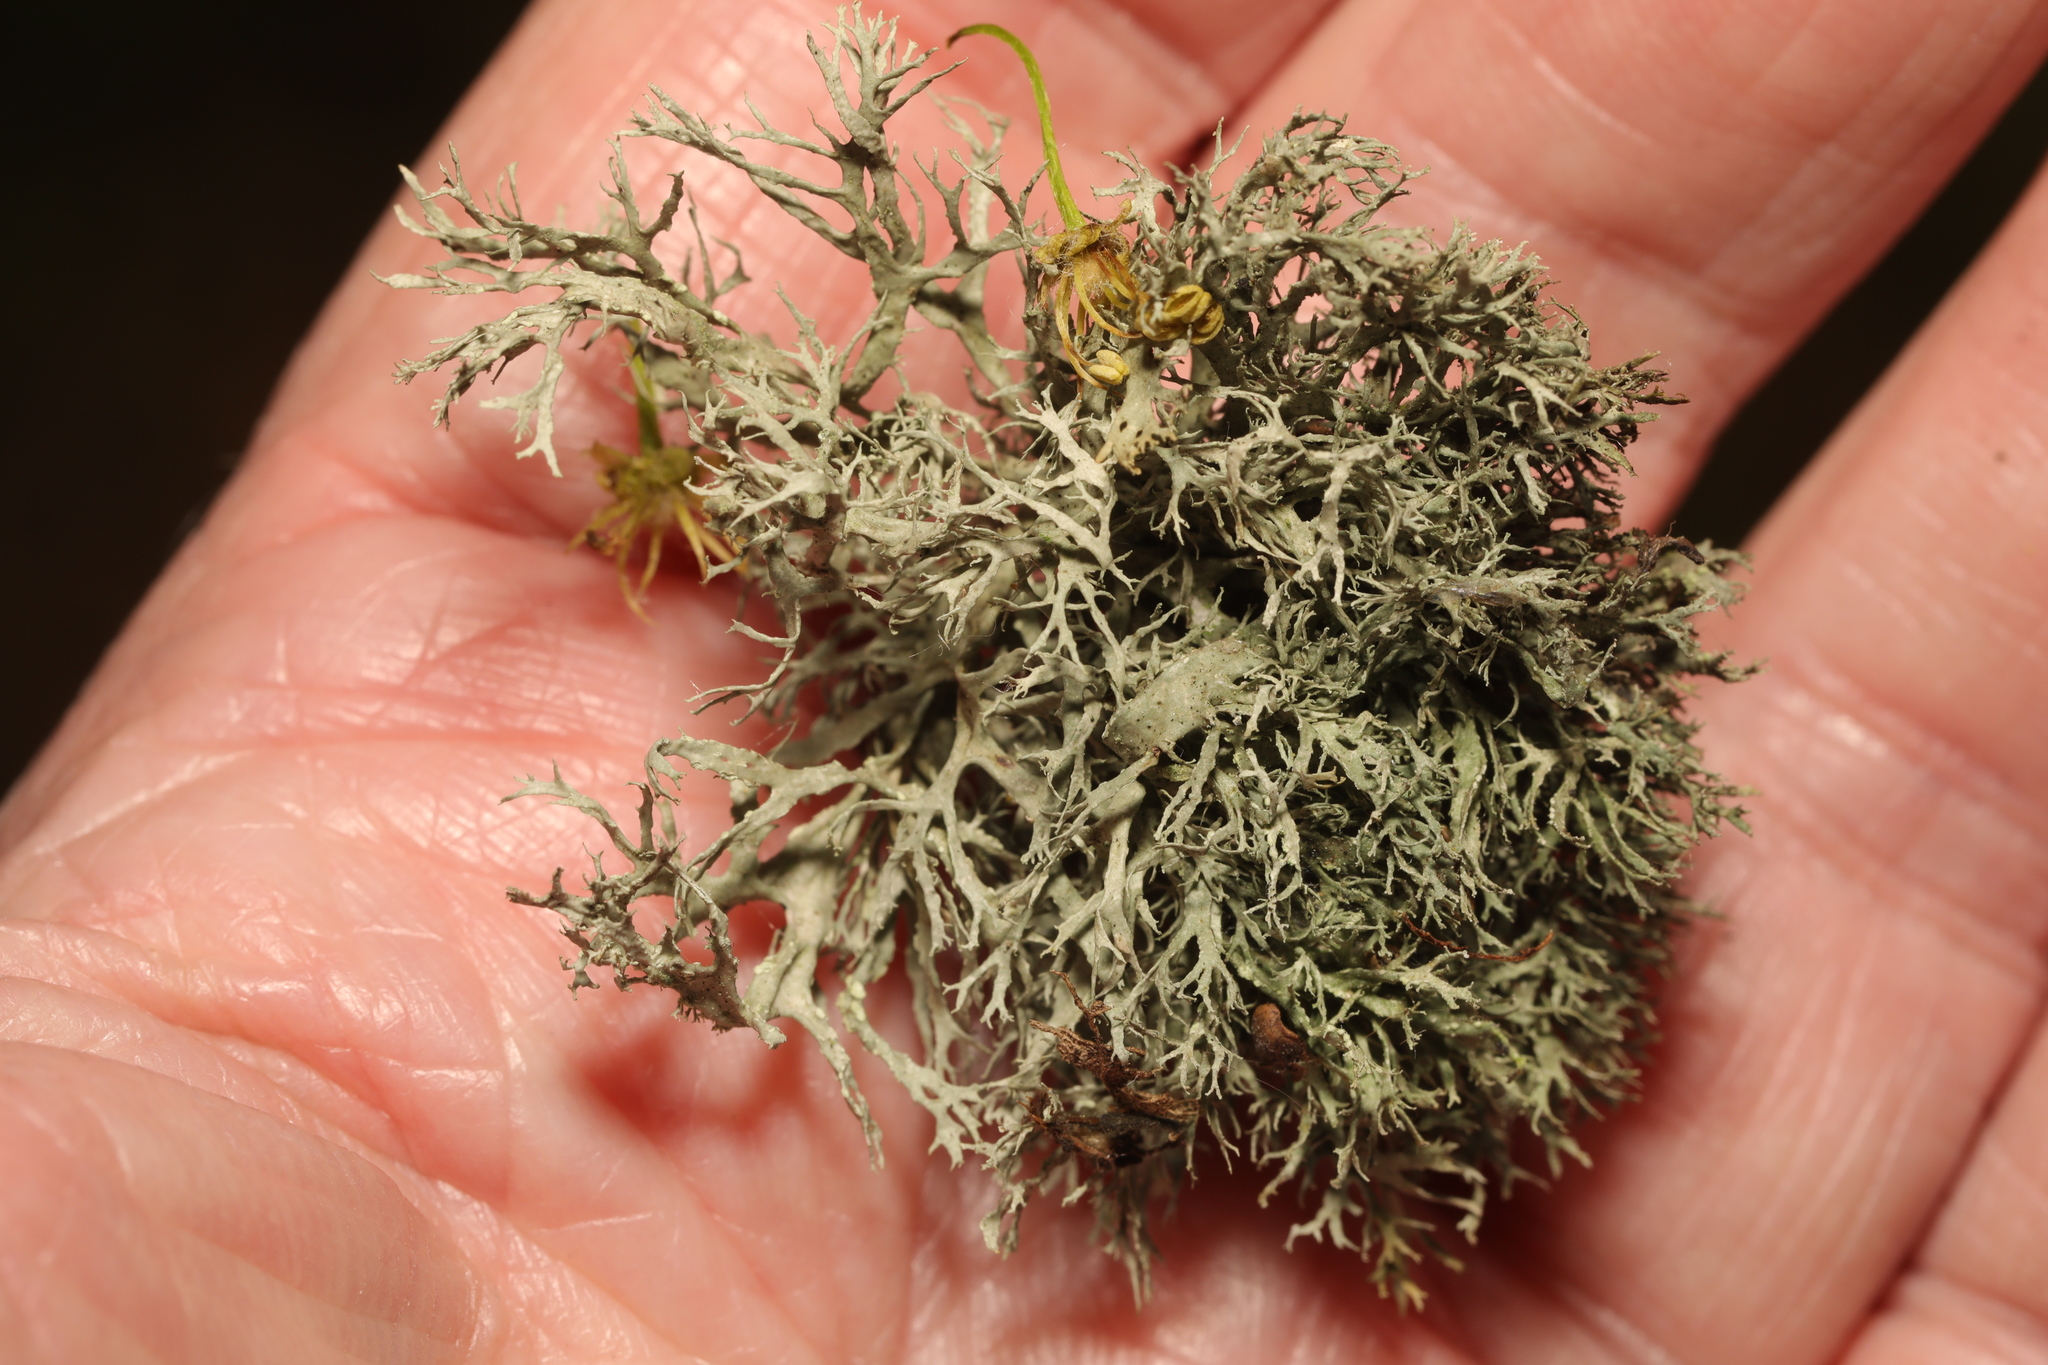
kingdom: Fungi
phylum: Ascomycota
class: Lecanoromycetes
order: Lecanorales
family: Ramalinaceae
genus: Ramalina
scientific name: Ramalina farinacea
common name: Farinose cartilage lichen
